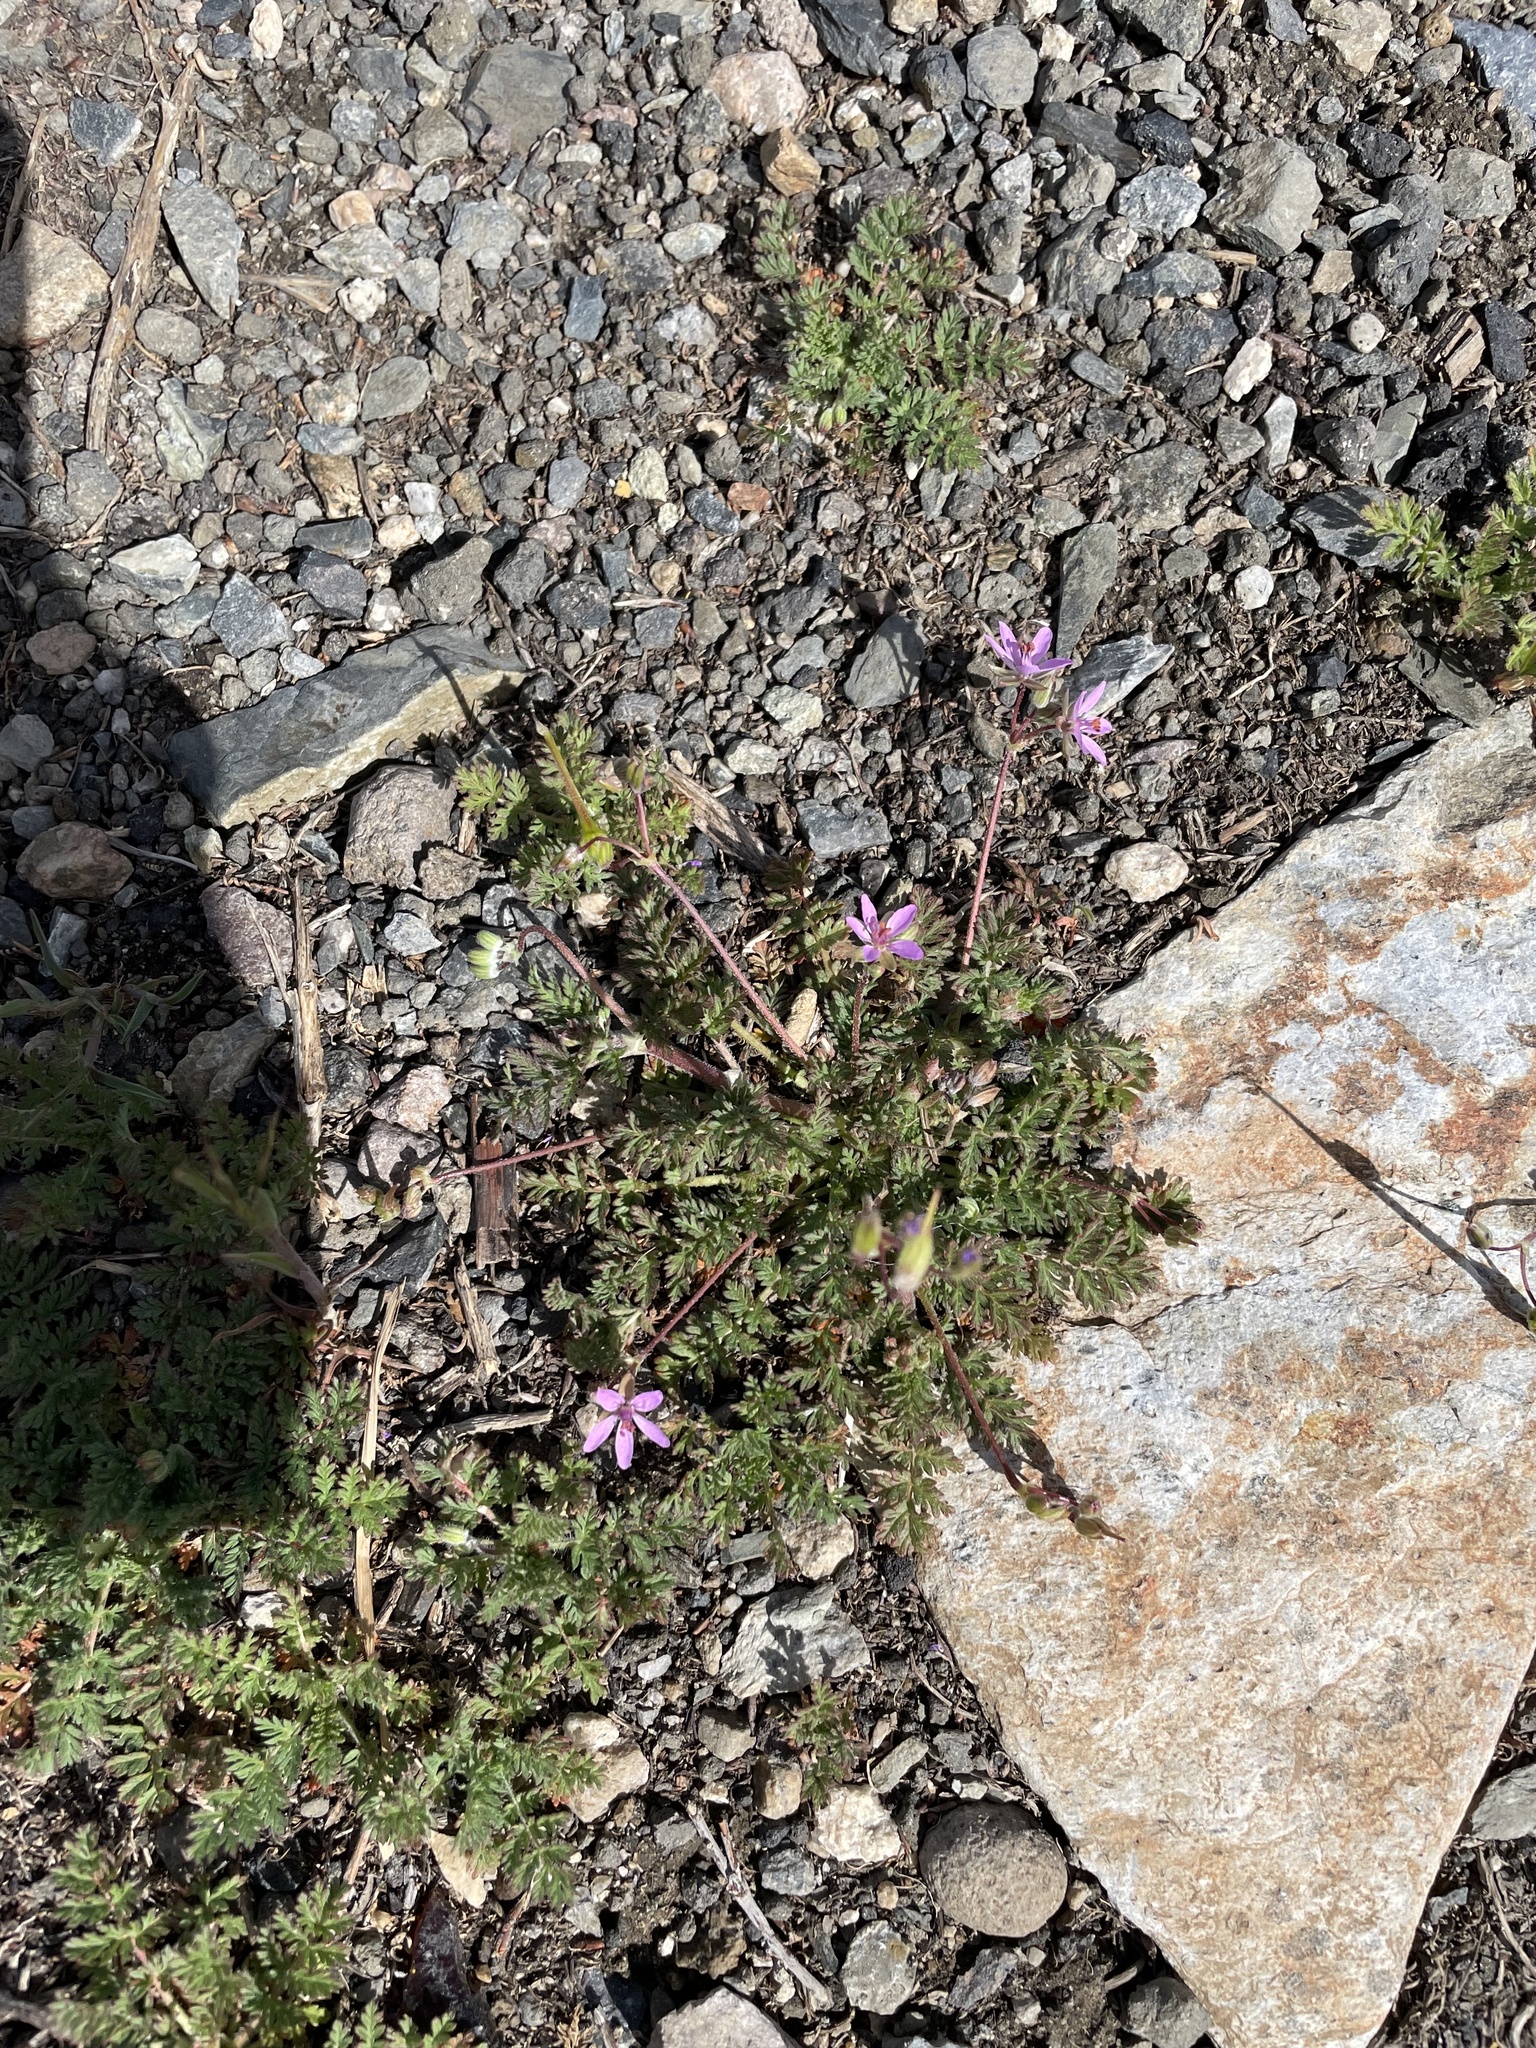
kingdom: Plantae
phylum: Tracheophyta
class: Magnoliopsida
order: Geraniales
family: Geraniaceae
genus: Erodium
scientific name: Erodium cicutarium
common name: Common stork's-bill
